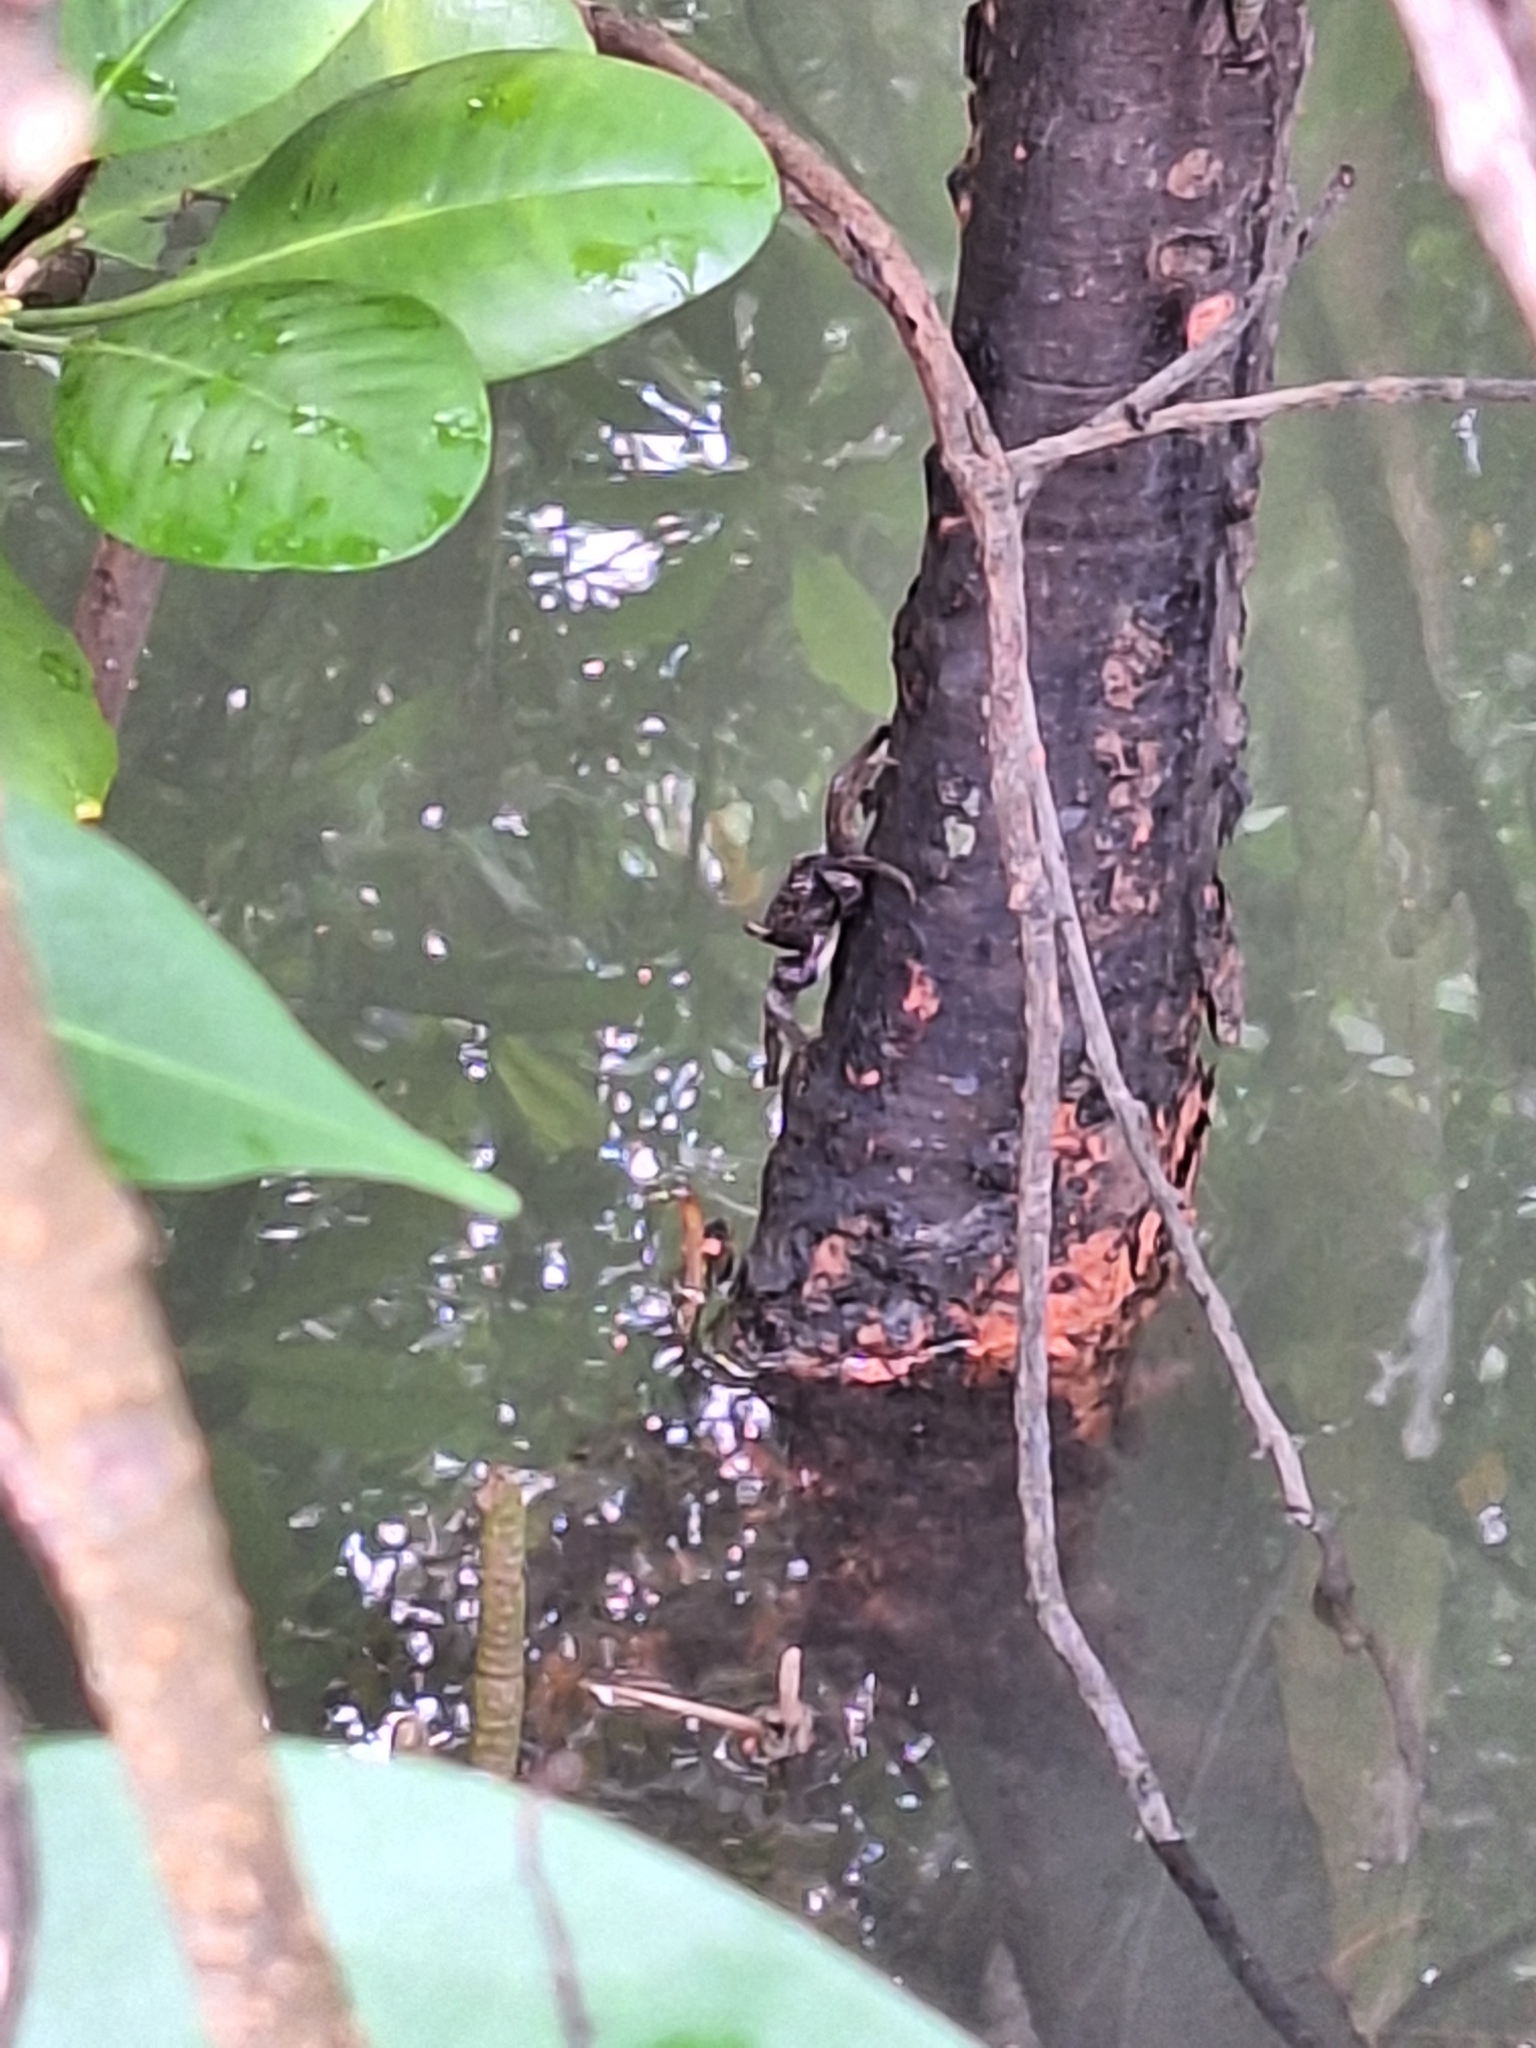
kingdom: Animalia
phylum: Arthropoda
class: Malacostraca
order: Decapoda
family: Sesarmidae
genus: Episesarma
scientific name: Episesarma versicolor
